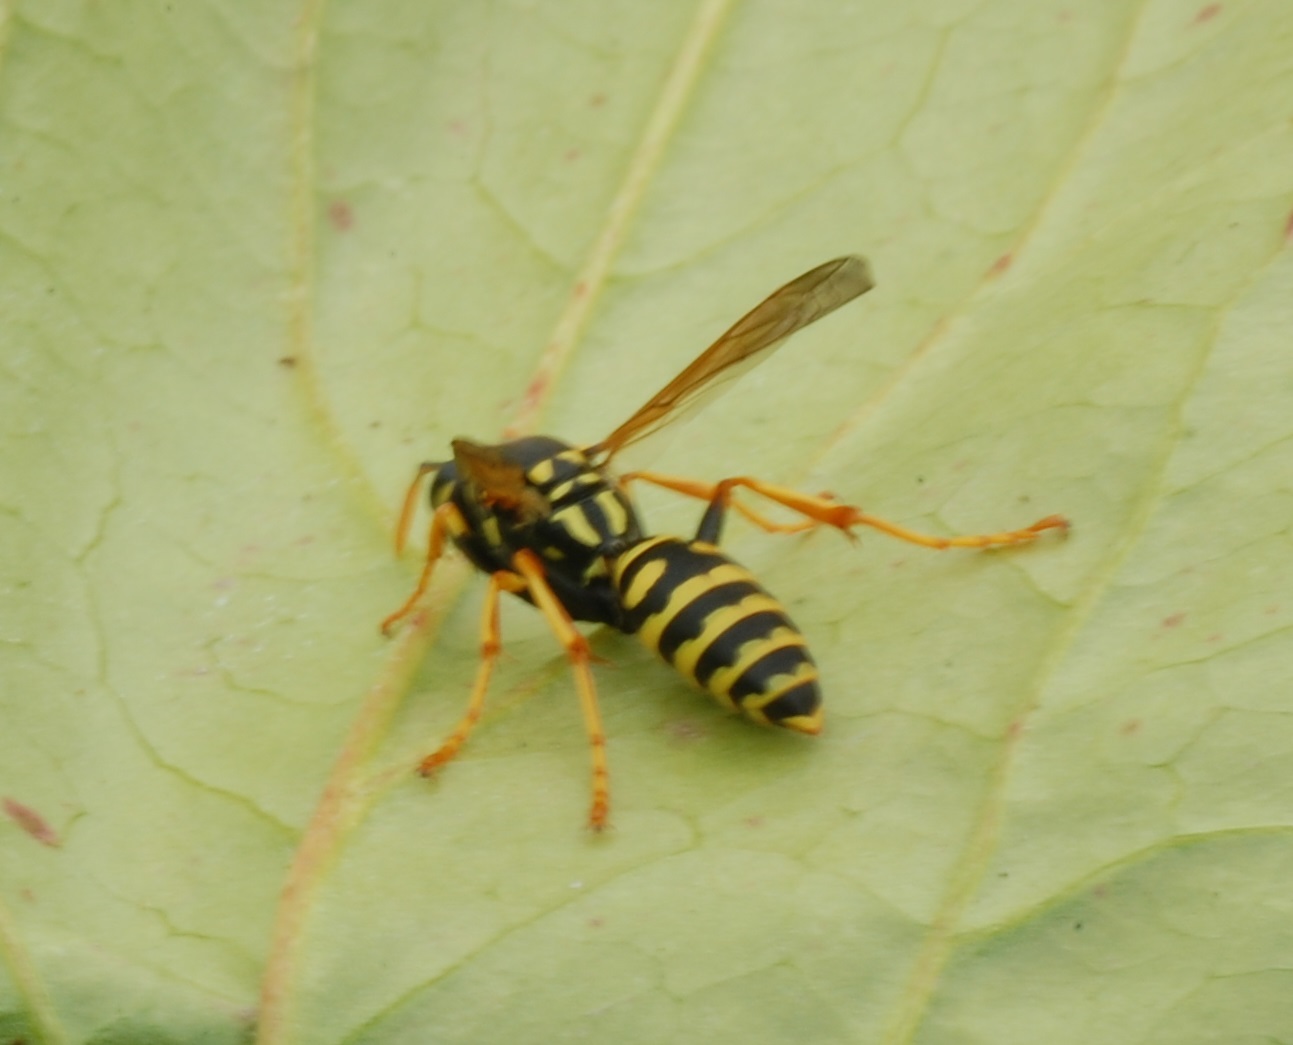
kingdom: Animalia
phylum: Arthropoda
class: Insecta
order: Hymenoptera
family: Eumenidae
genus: Polistes
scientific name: Polistes dominula
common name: Paper wasp
